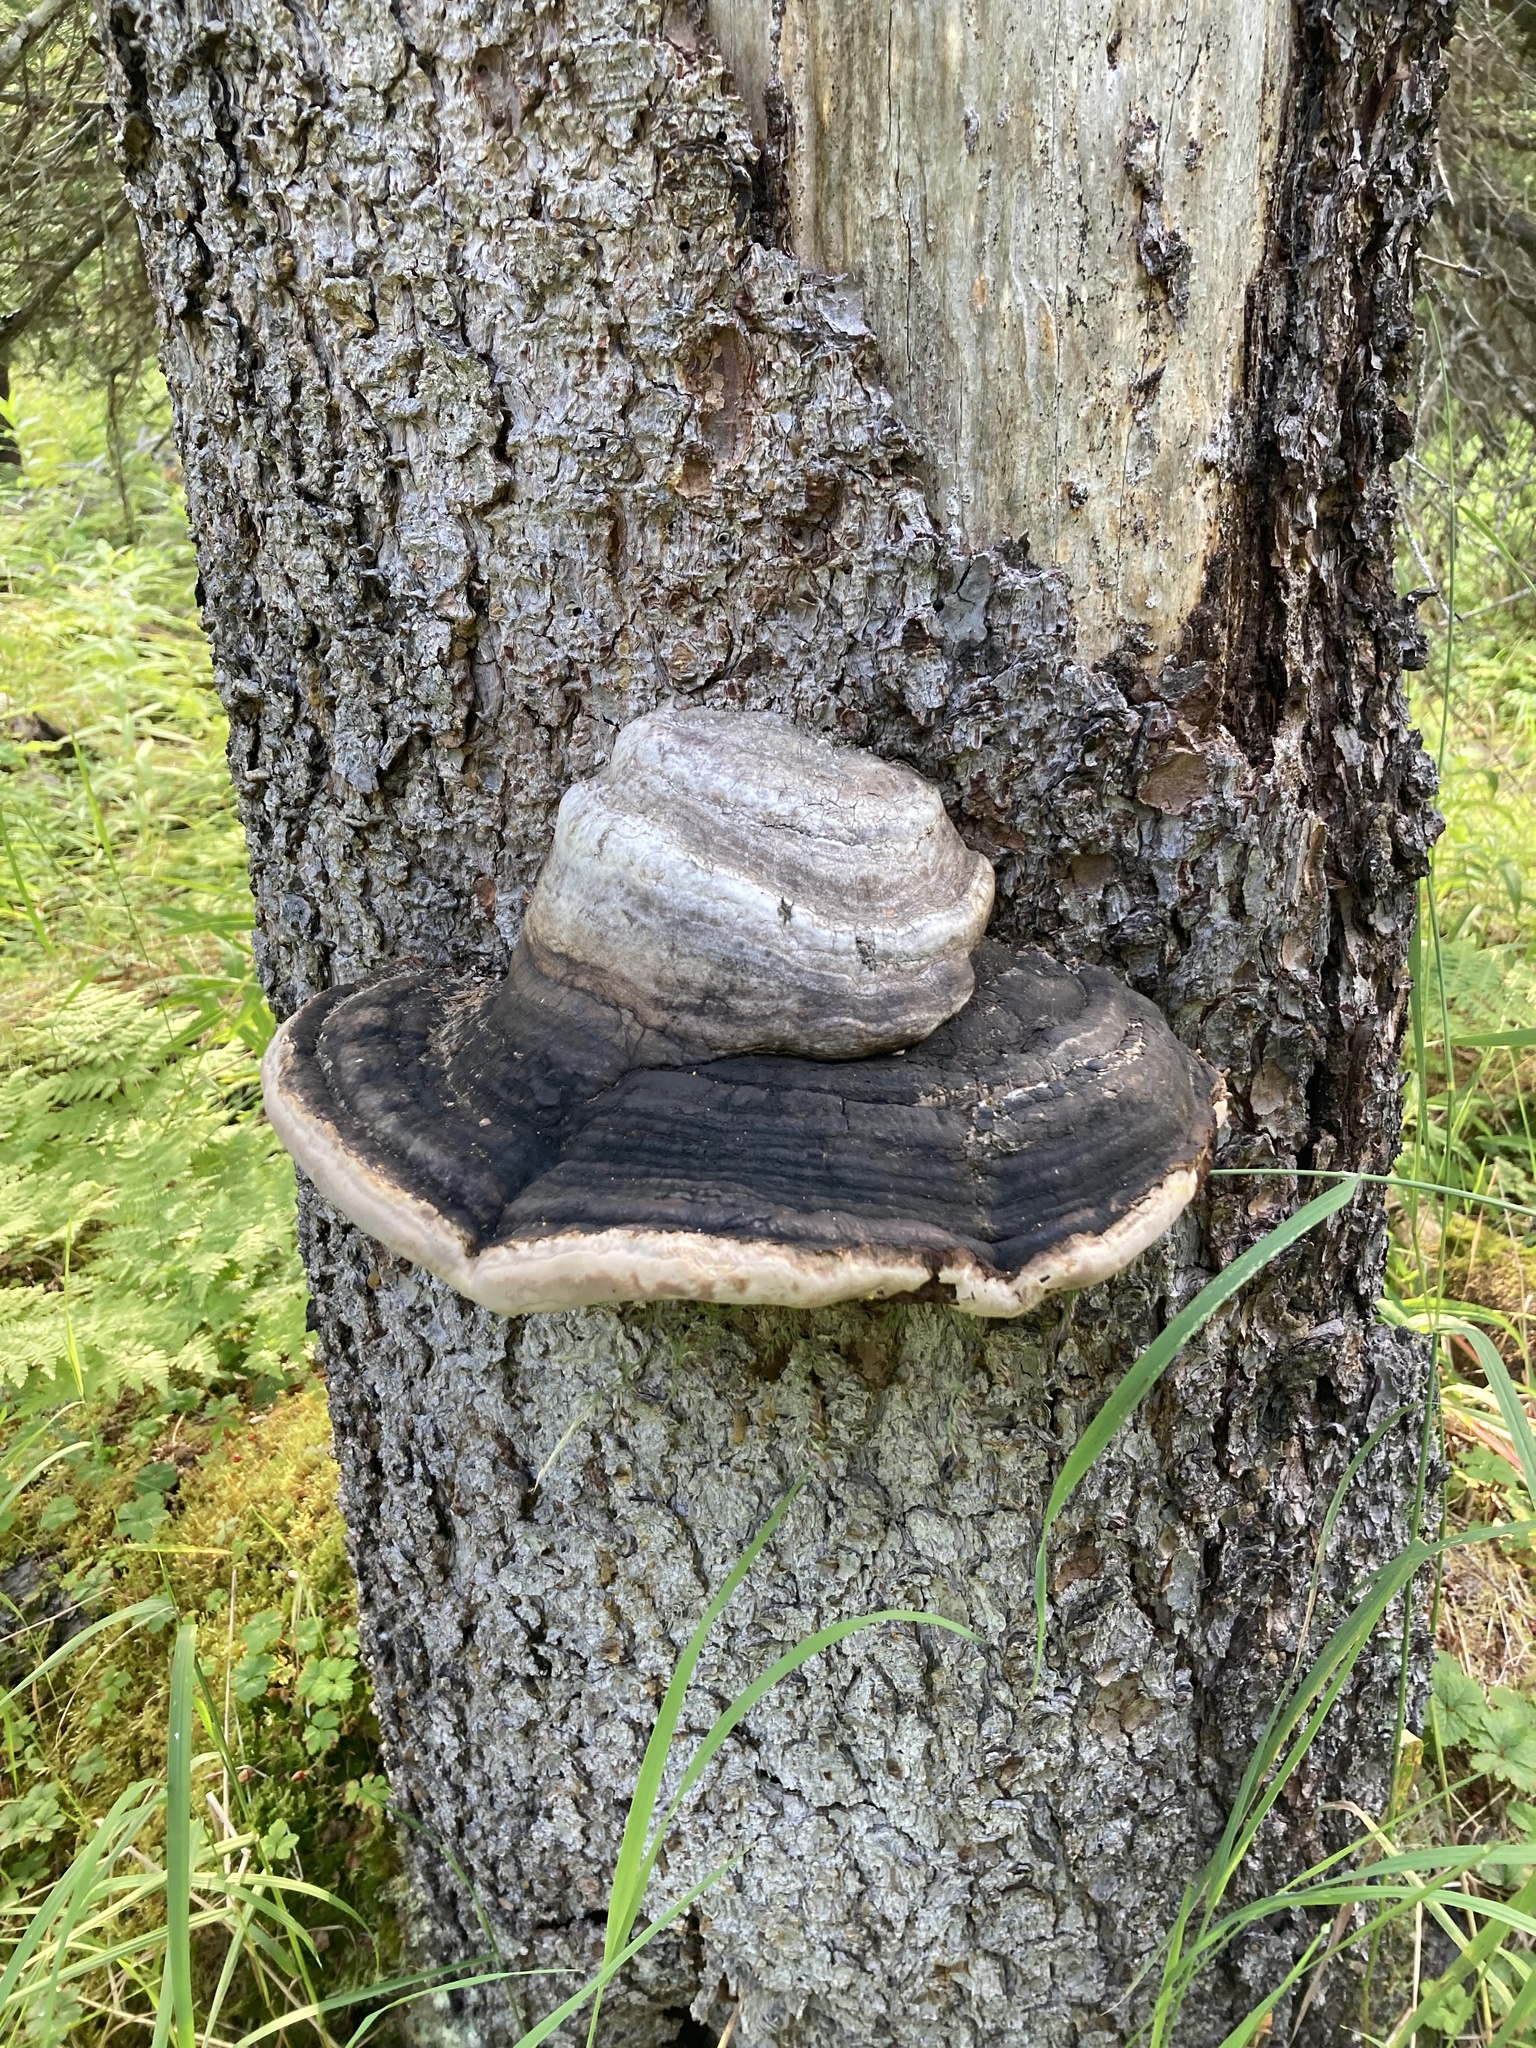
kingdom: Fungi
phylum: Basidiomycota
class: Agaricomycetes
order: Polyporales
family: Fomitopsidaceae
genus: Fomitopsis
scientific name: Fomitopsis ochracea
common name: American brown fomitopsis
